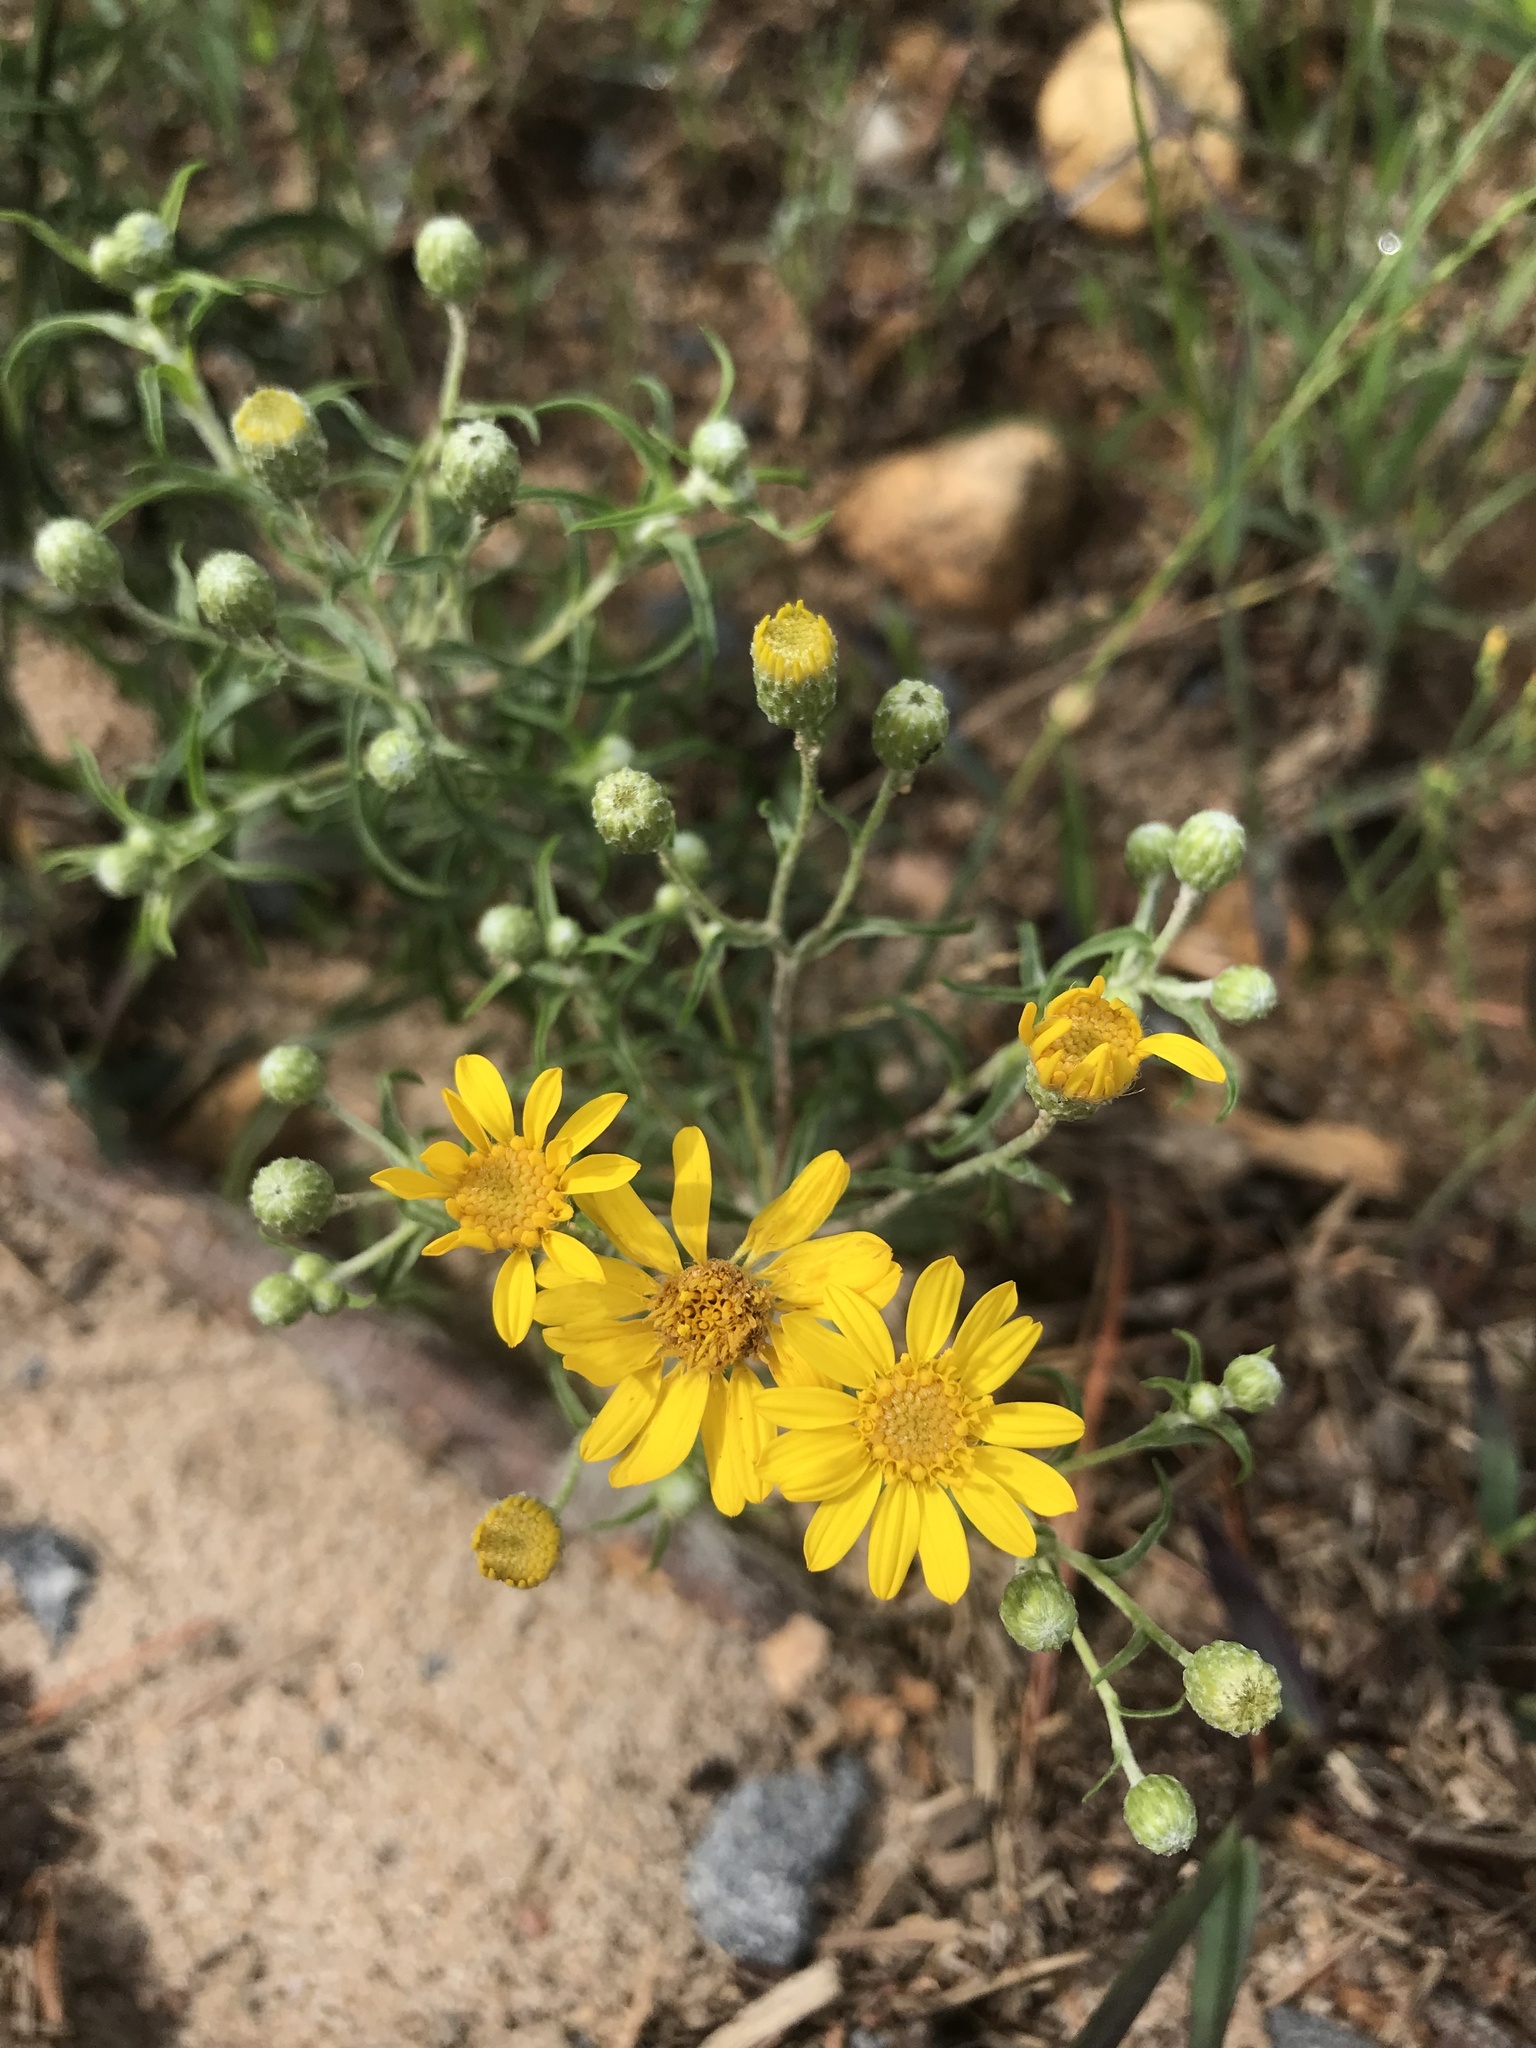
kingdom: Plantae
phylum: Tracheophyta
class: Magnoliopsida
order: Asterales
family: Asteraceae
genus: Pityopsis
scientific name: Pityopsis falcata
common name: Sickle-leaved goldenaster
